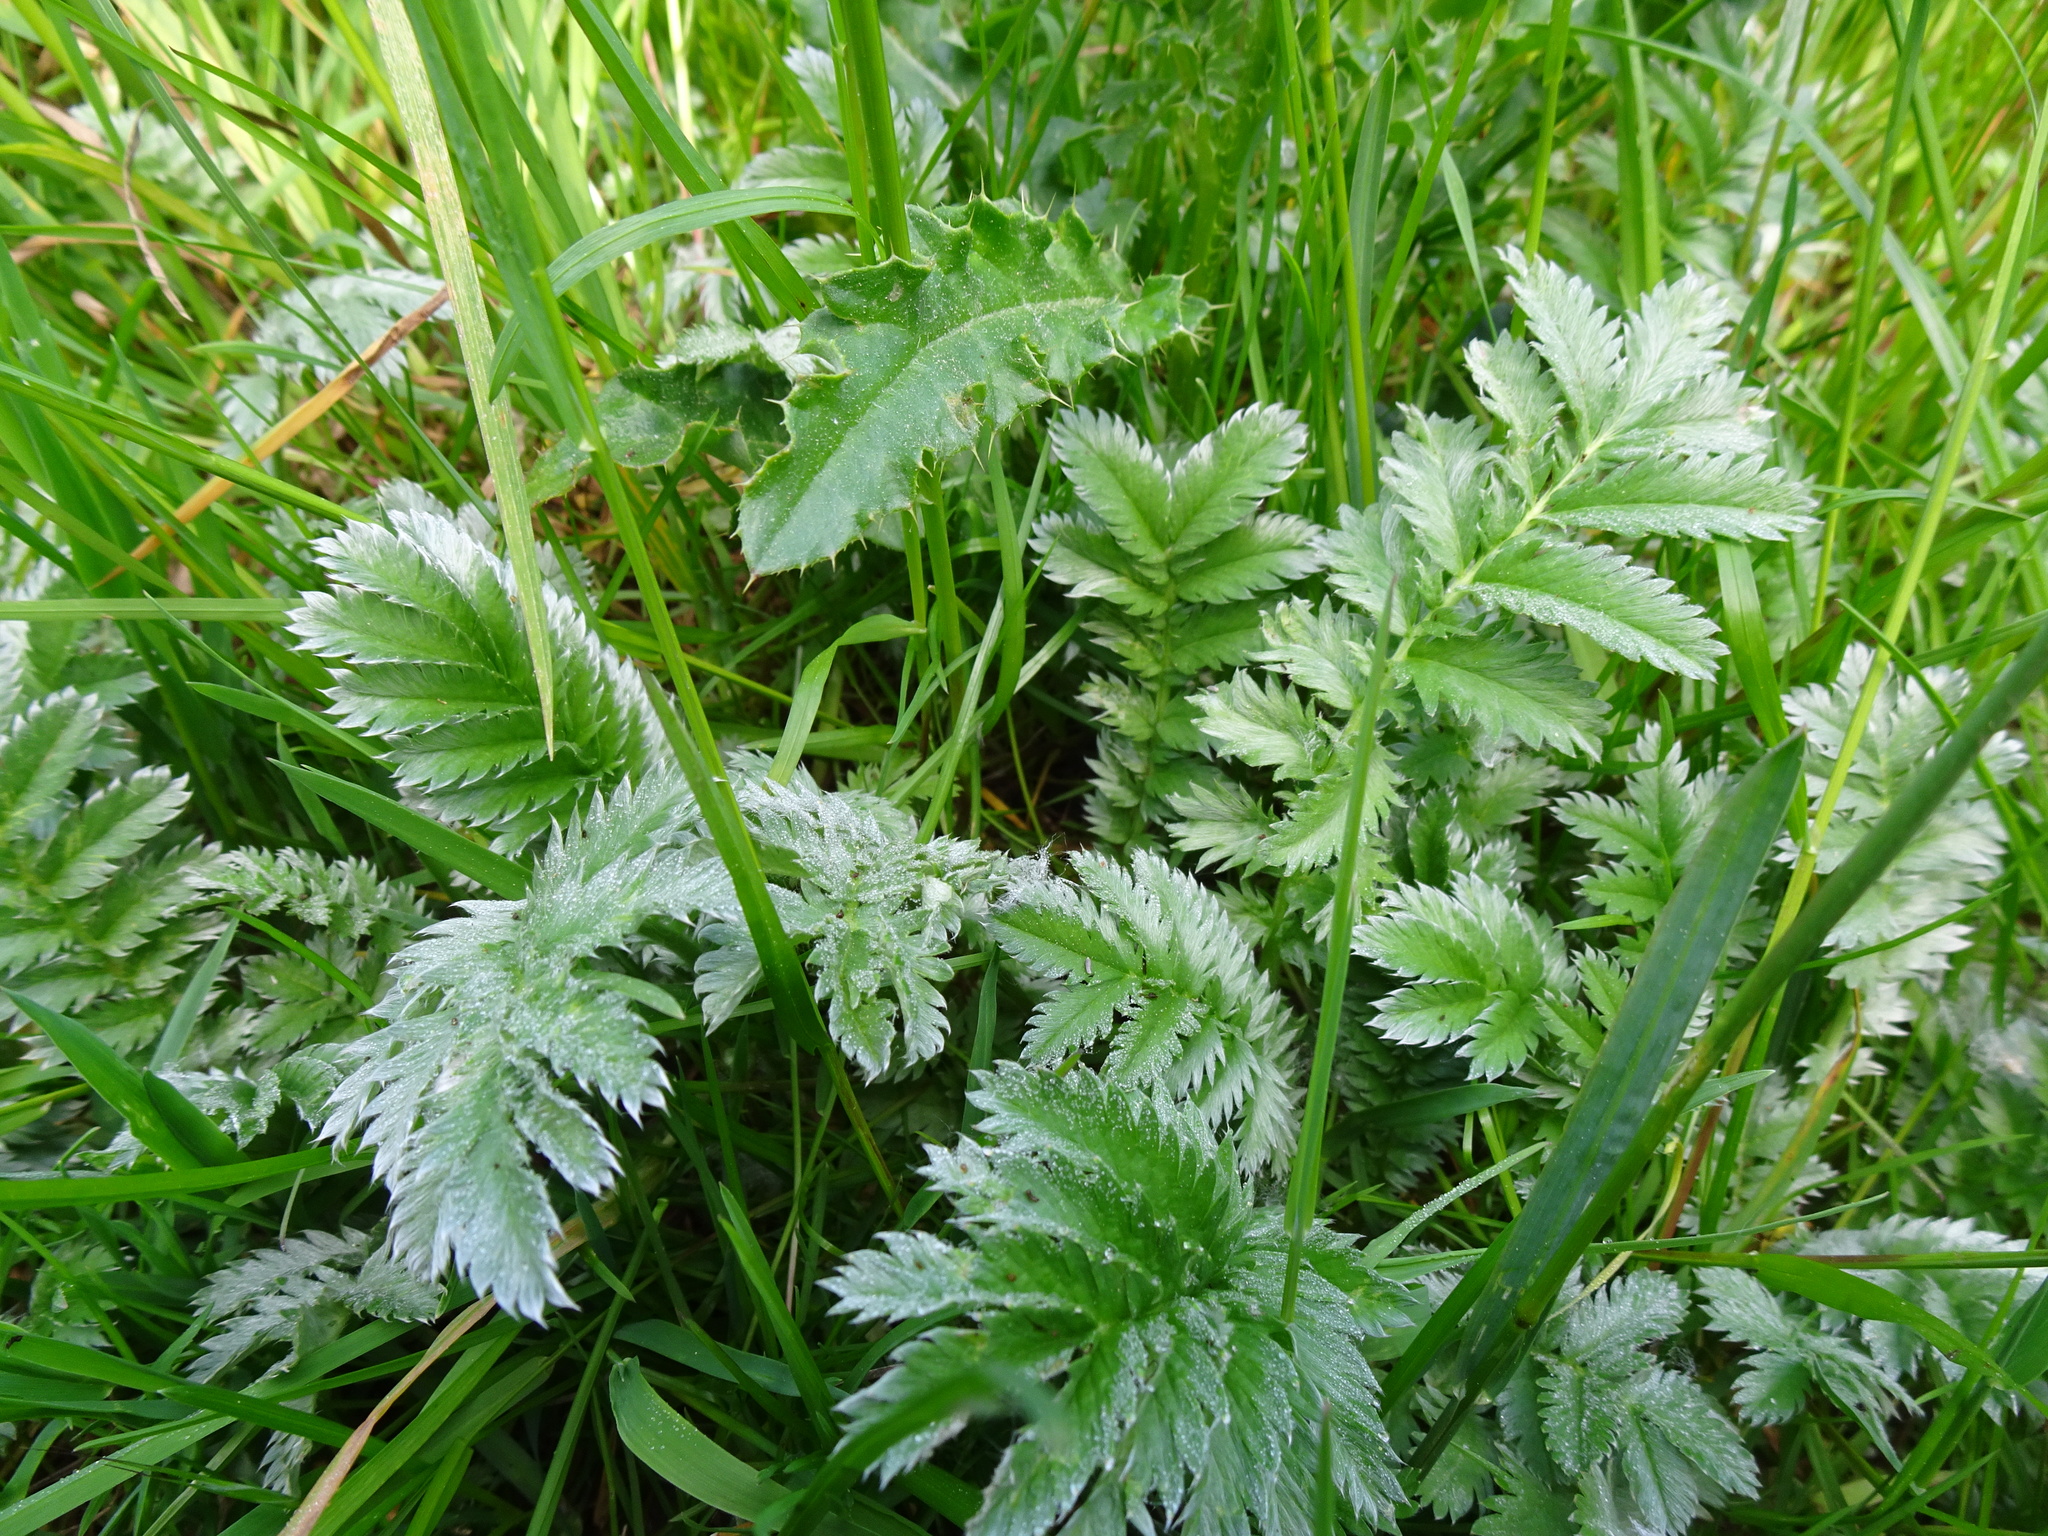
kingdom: Plantae
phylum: Tracheophyta
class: Magnoliopsida
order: Rosales
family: Rosaceae
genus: Argentina
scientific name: Argentina anserina
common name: Common silverweed
